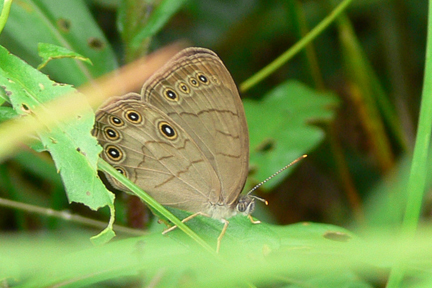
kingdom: Animalia
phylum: Arthropoda
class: Insecta
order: Lepidoptera
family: Nymphalidae
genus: Lethe
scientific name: Lethe eurydice
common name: Eyed brown
